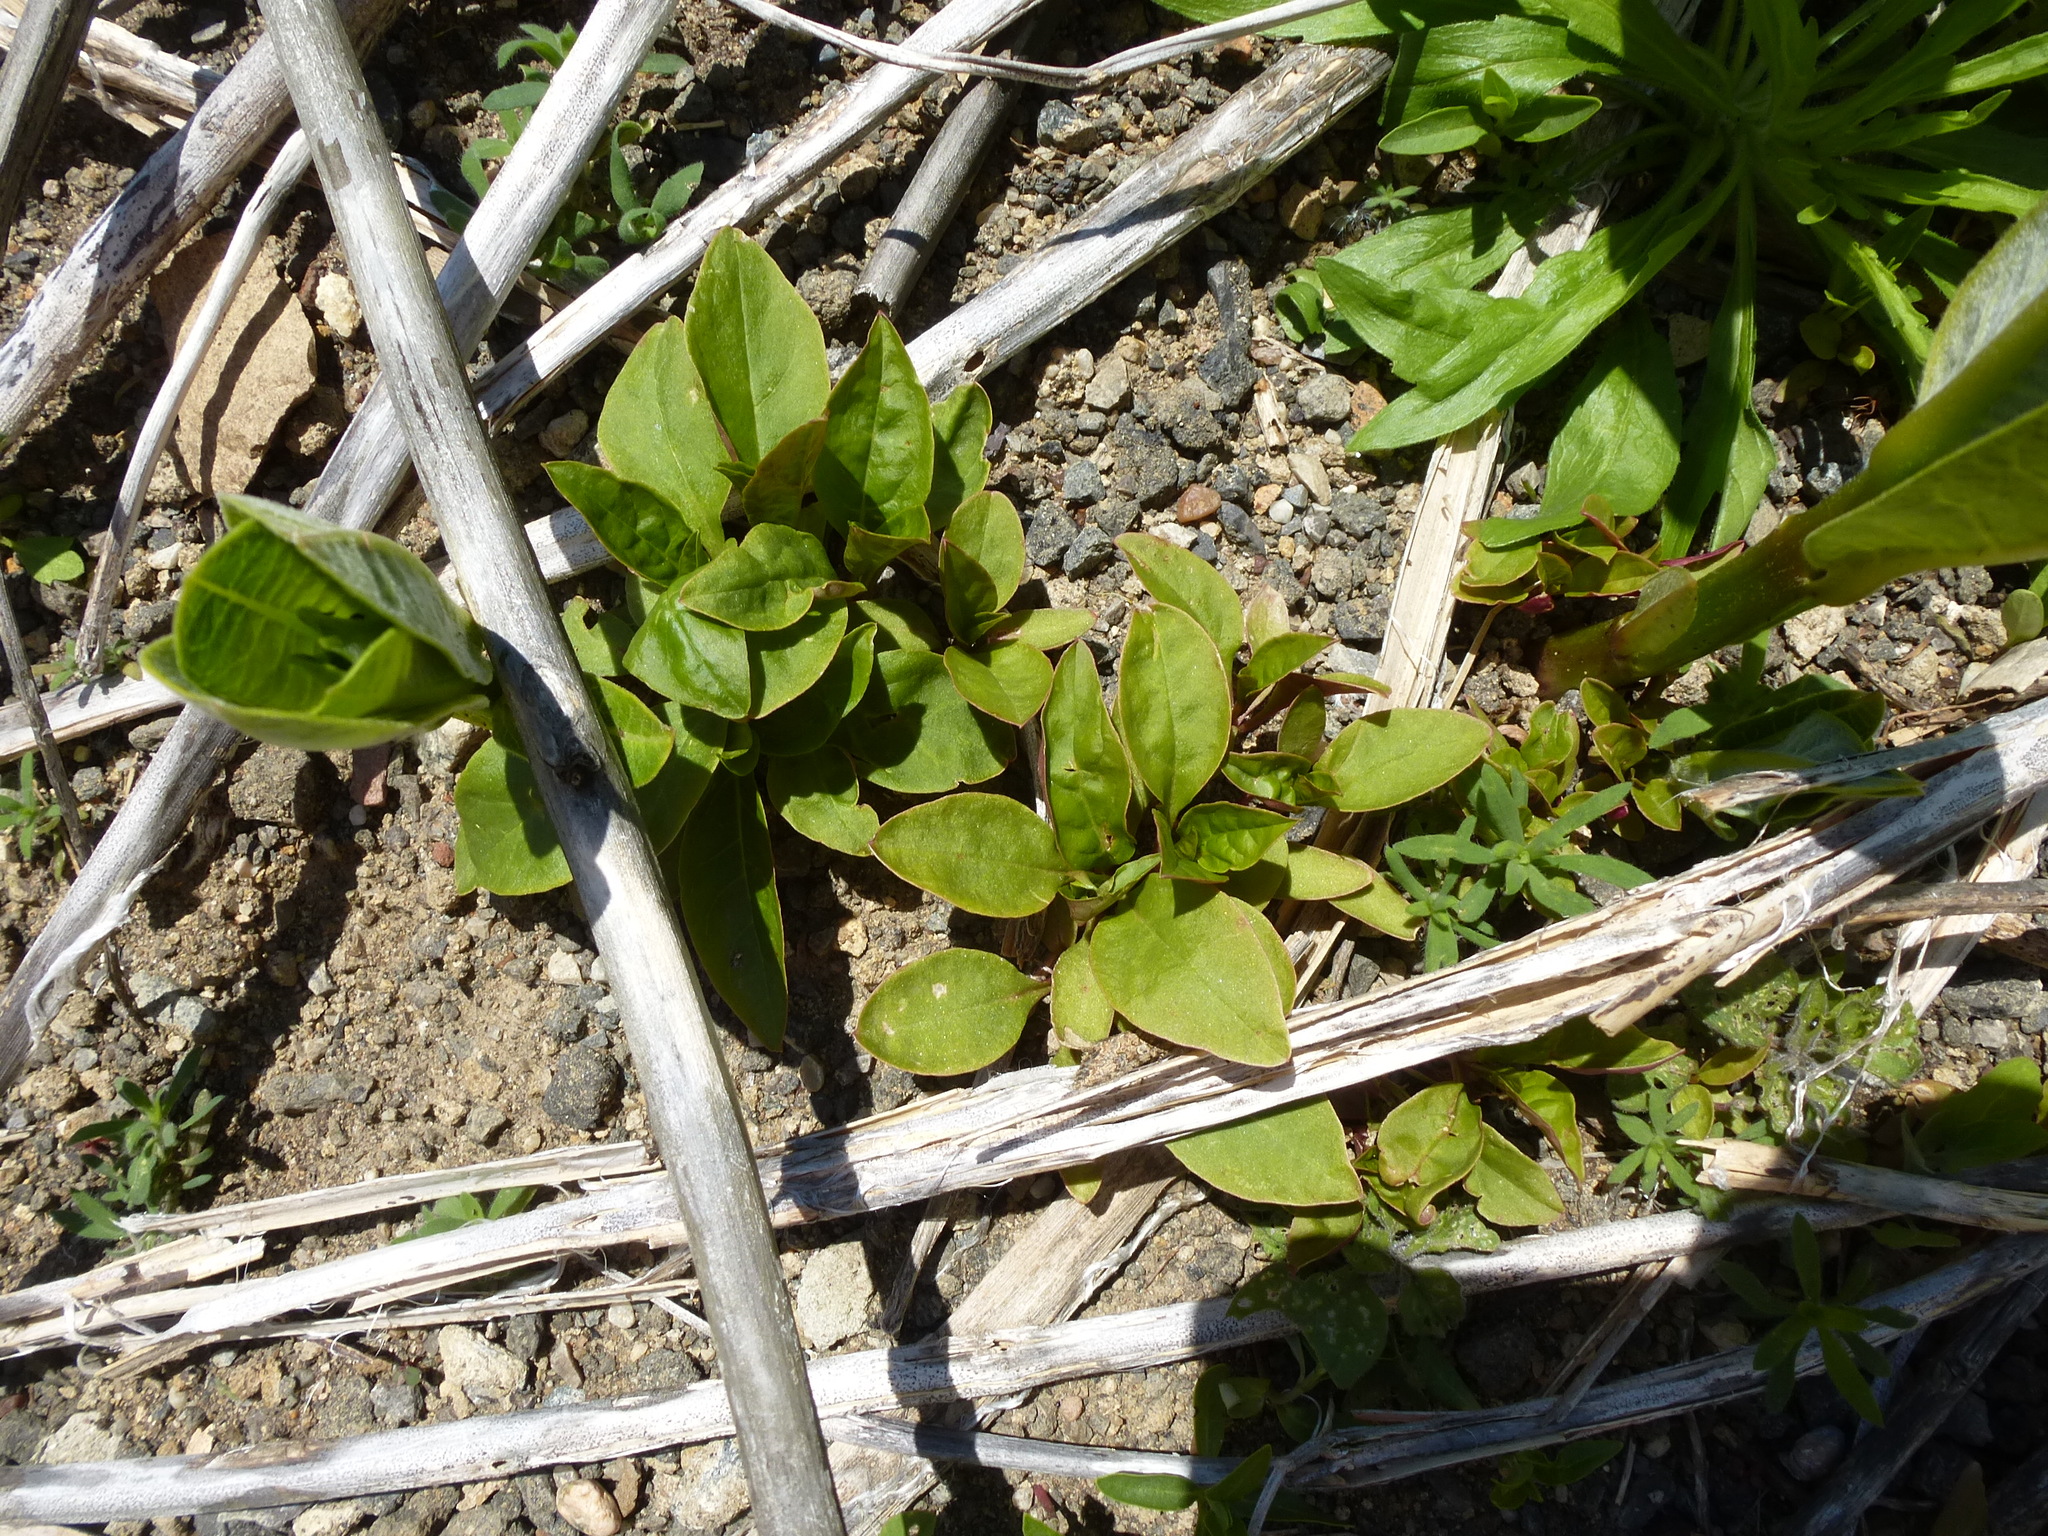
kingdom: Plantae
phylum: Tracheophyta
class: Magnoliopsida
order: Caryophyllales
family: Phytolaccaceae
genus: Phytolacca
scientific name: Phytolacca americana
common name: American pokeweed
